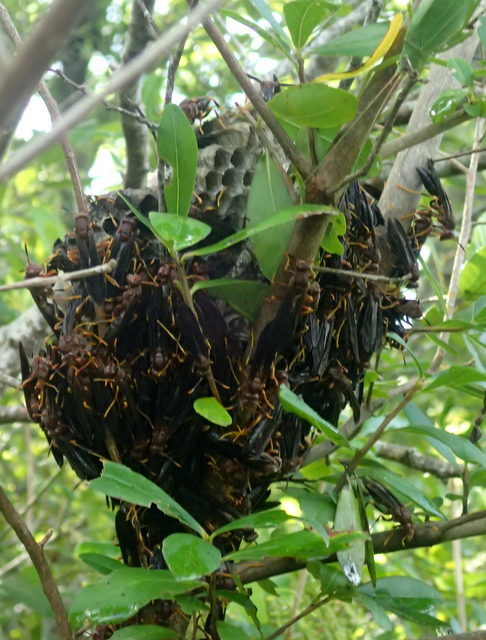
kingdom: Animalia
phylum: Arthropoda
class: Insecta
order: Hymenoptera
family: Eumenidae
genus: Polistes
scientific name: Polistes annularis
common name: Ringed paper wasp
